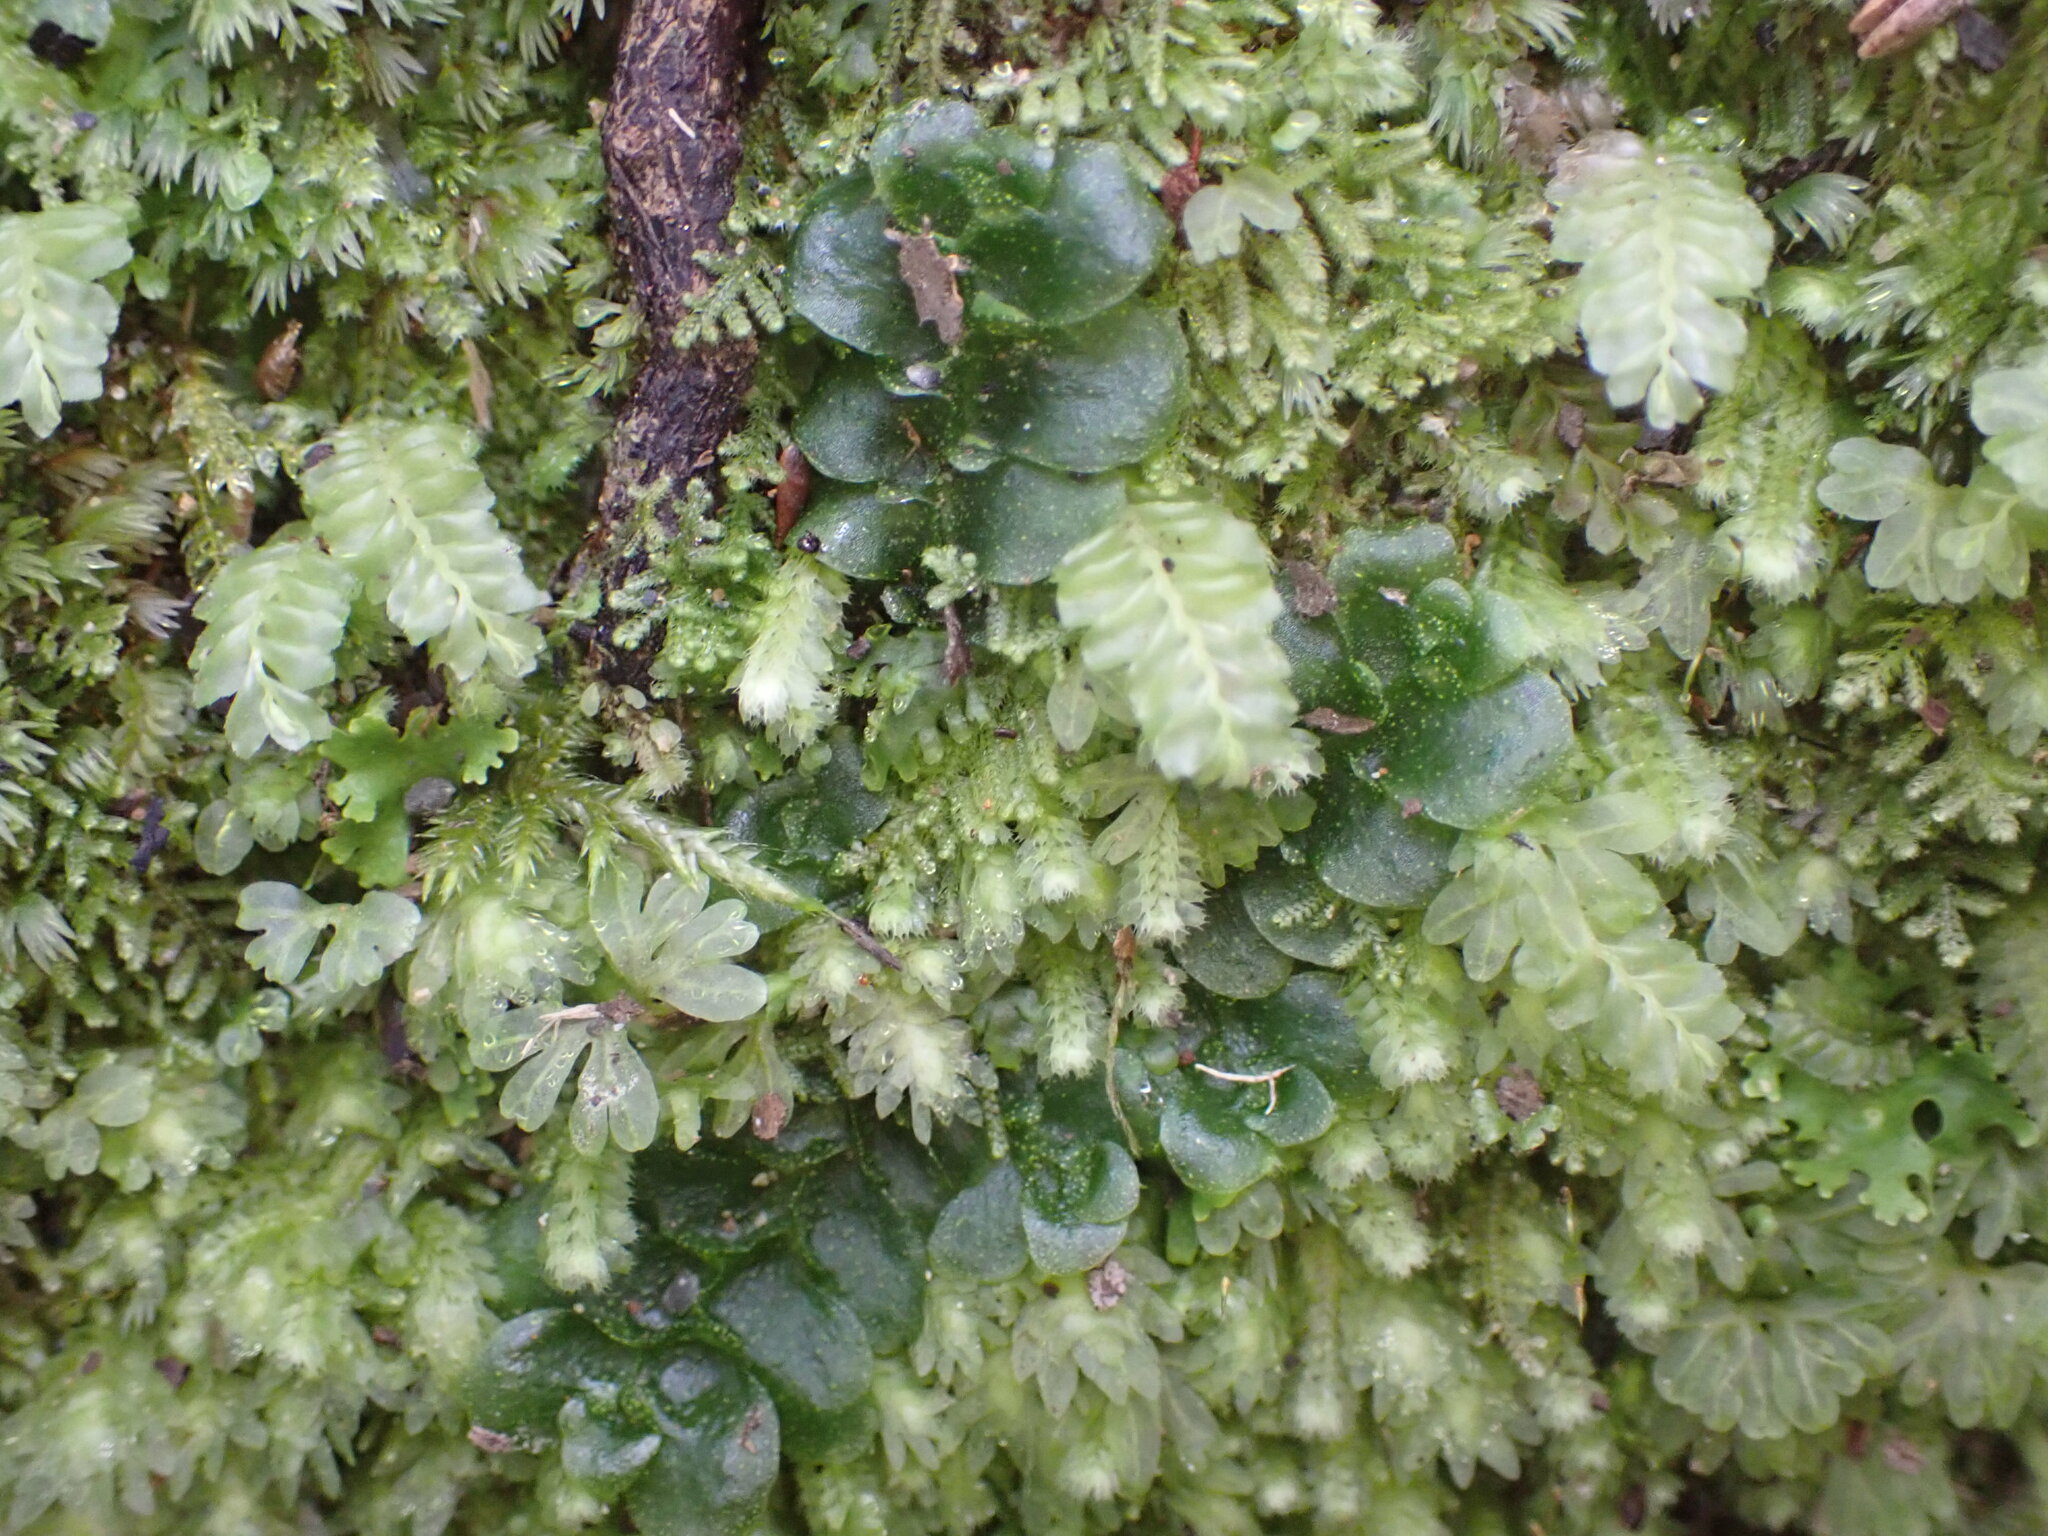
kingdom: Plantae
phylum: Marchantiophyta
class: Haplomitriopsida
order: Treubiales
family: Treubiaceae
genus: Treubia
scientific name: Treubia lacunosa
